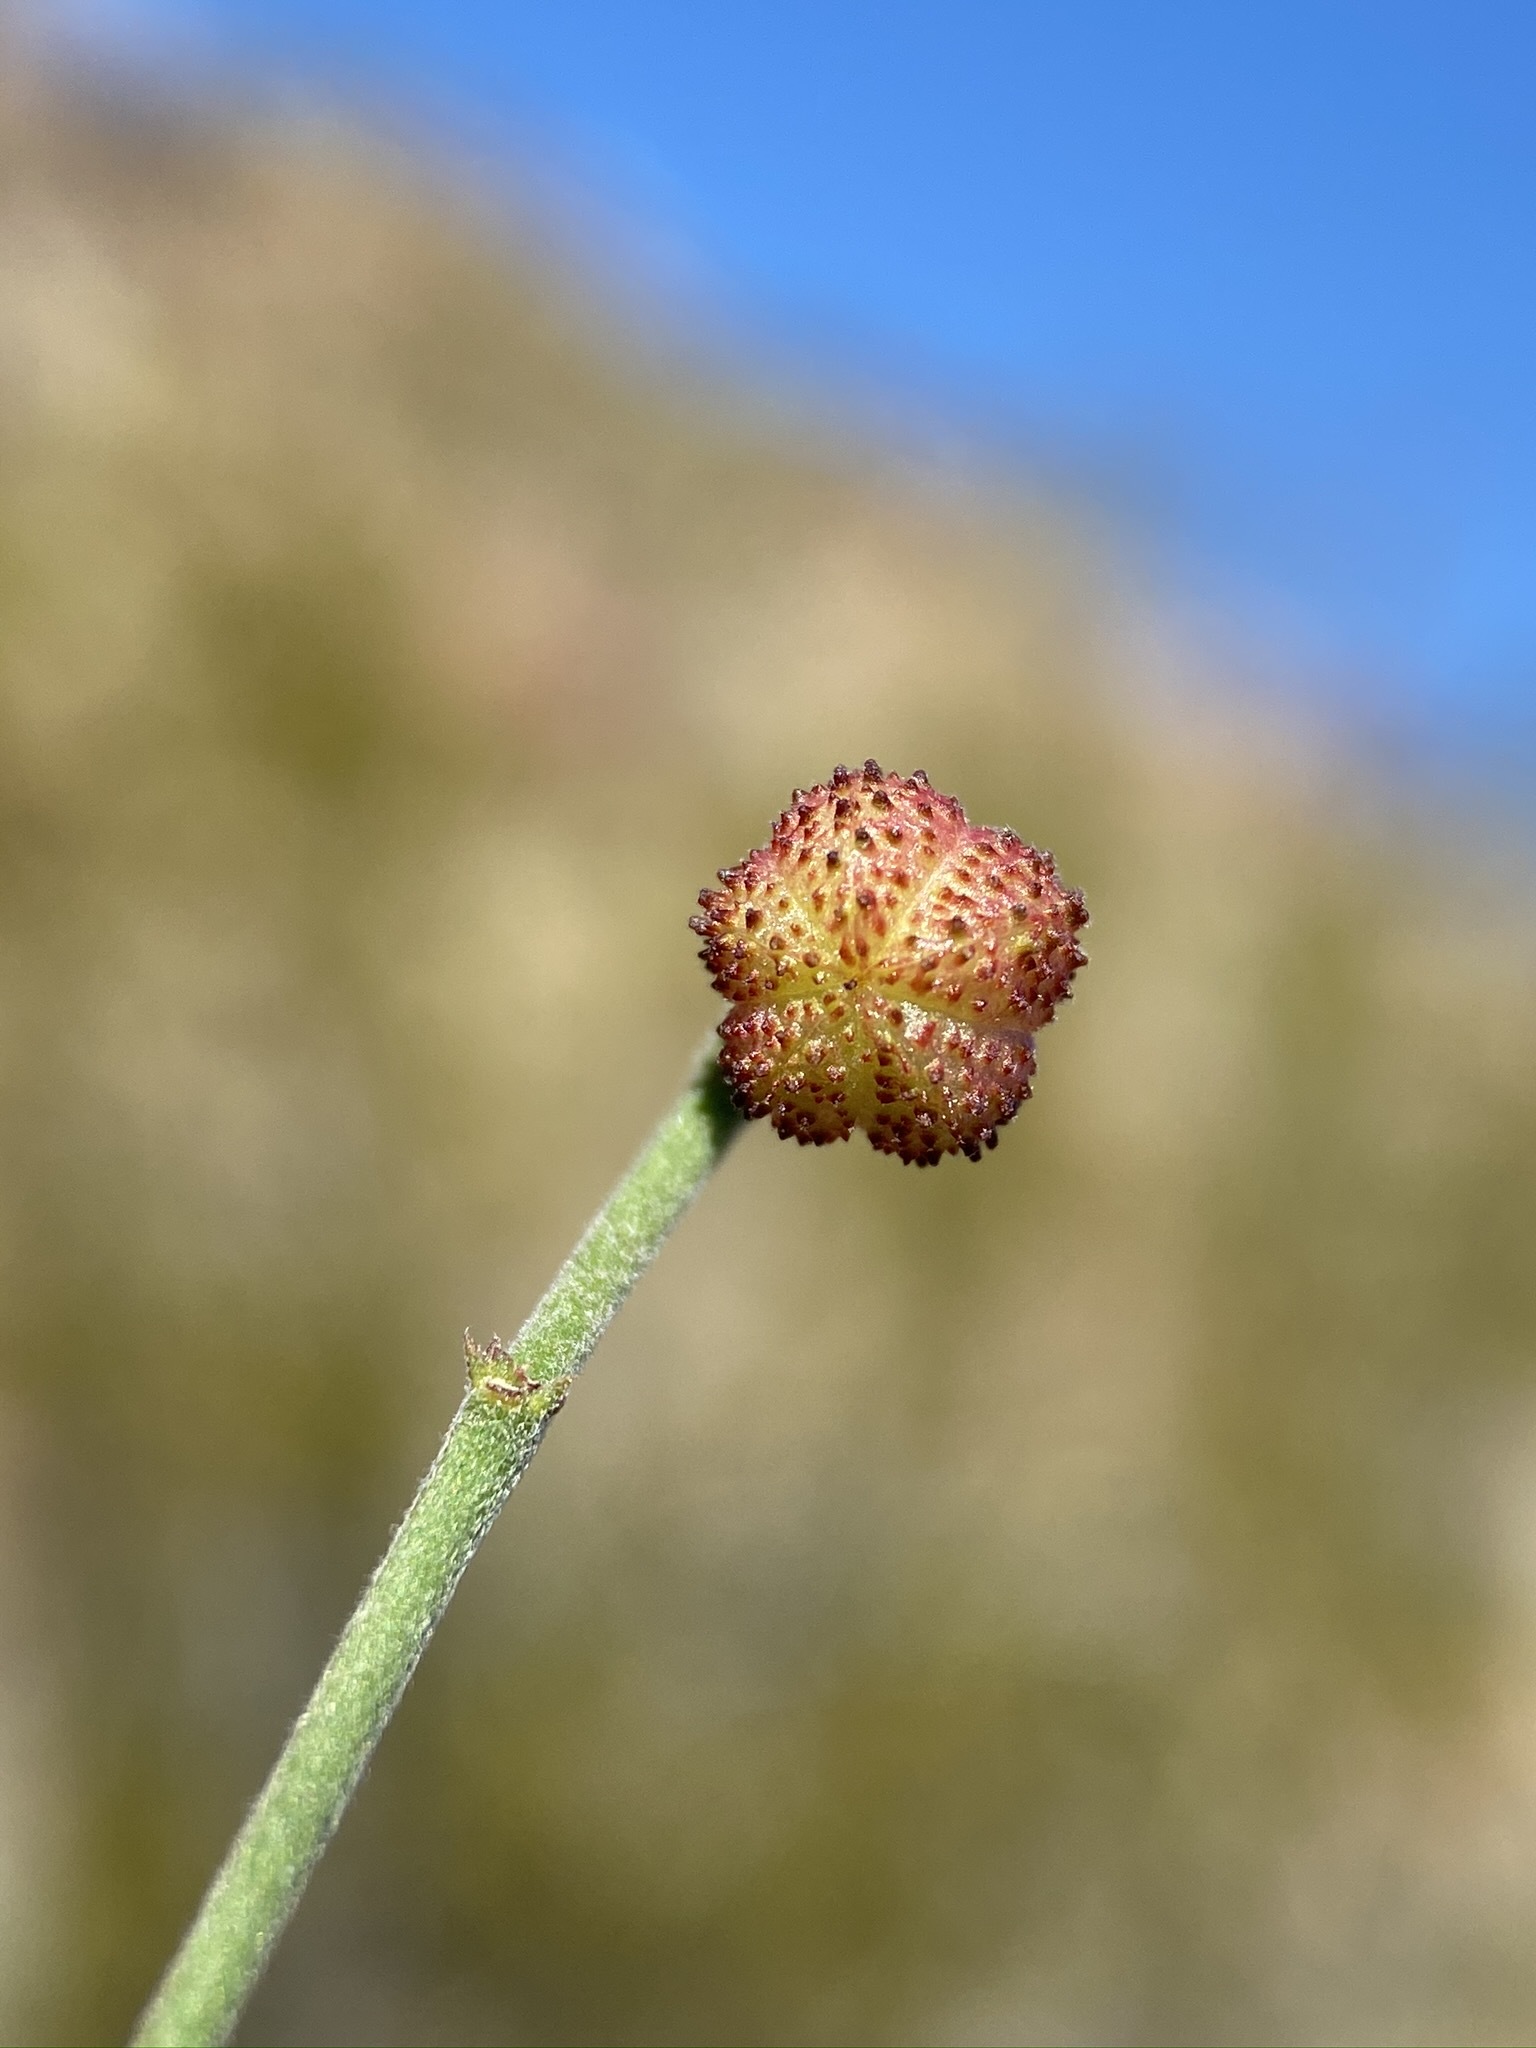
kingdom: Plantae
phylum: Tracheophyta
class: Magnoliopsida
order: Malvales
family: Malvaceae
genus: Ayenia
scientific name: Ayenia compacta
